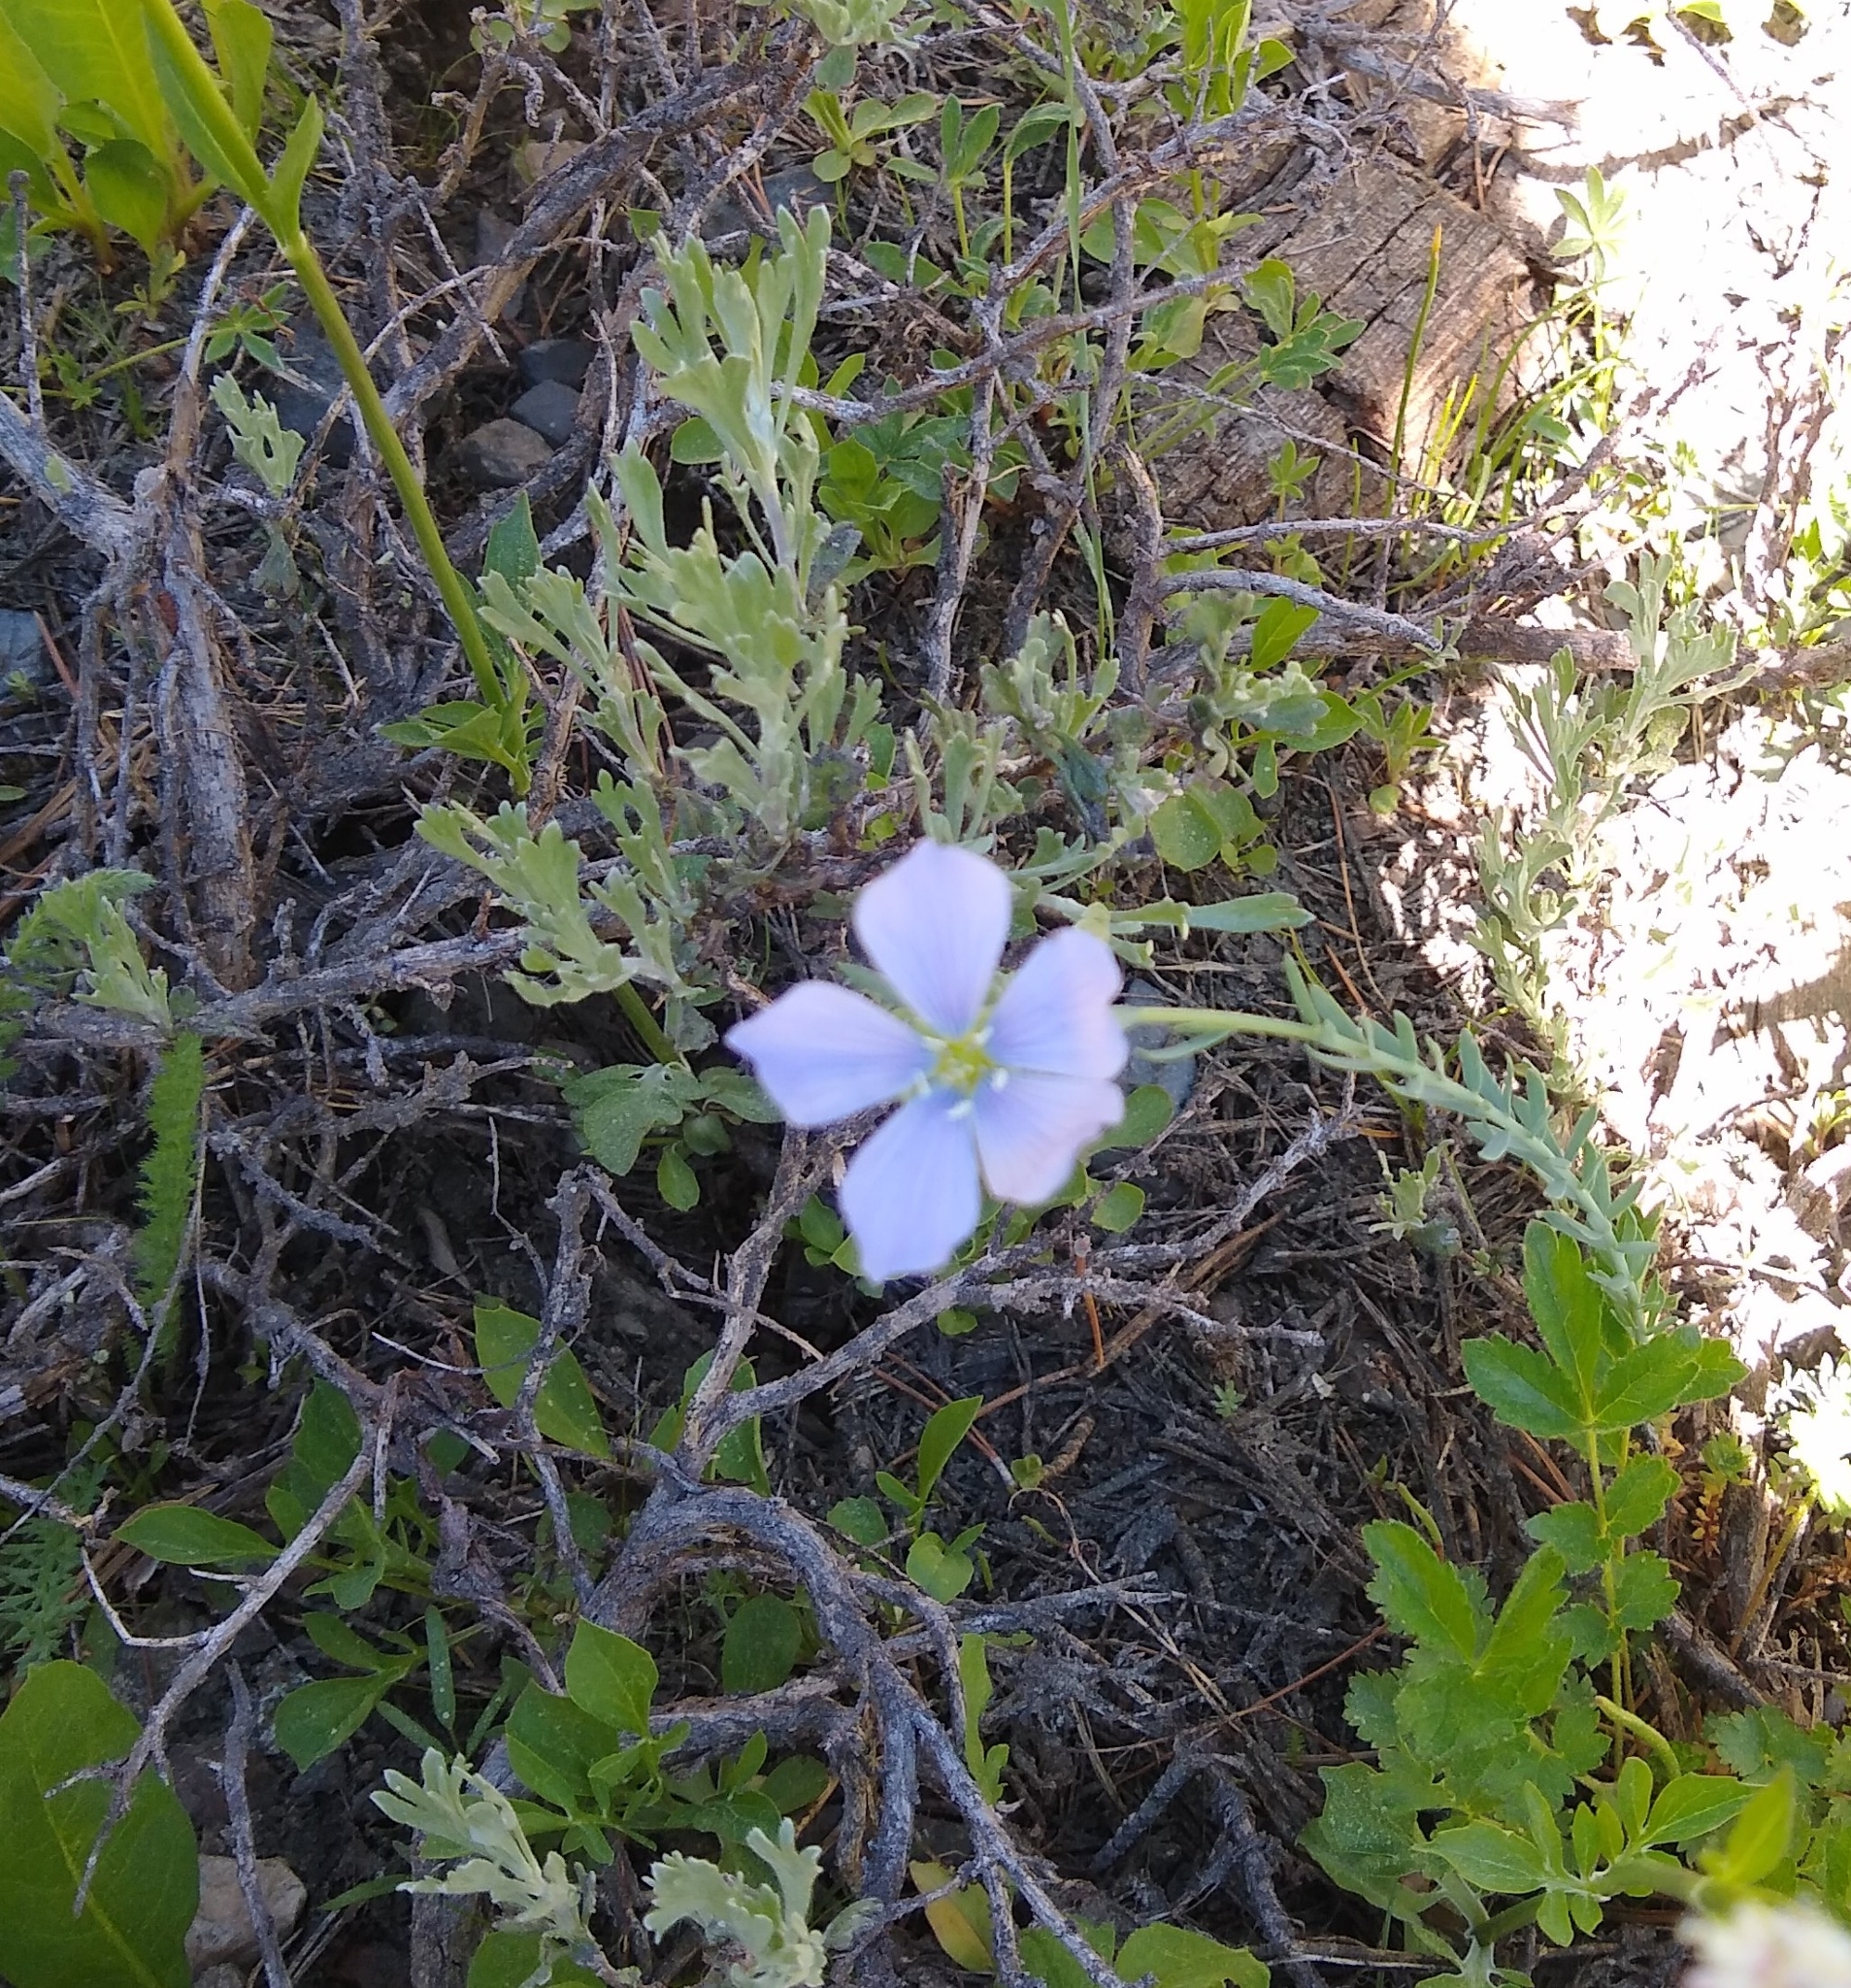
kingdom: Plantae
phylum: Tracheophyta
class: Magnoliopsida
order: Malpighiales
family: Linaceae
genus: Linum
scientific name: Linum lewisii
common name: Prairie flax
